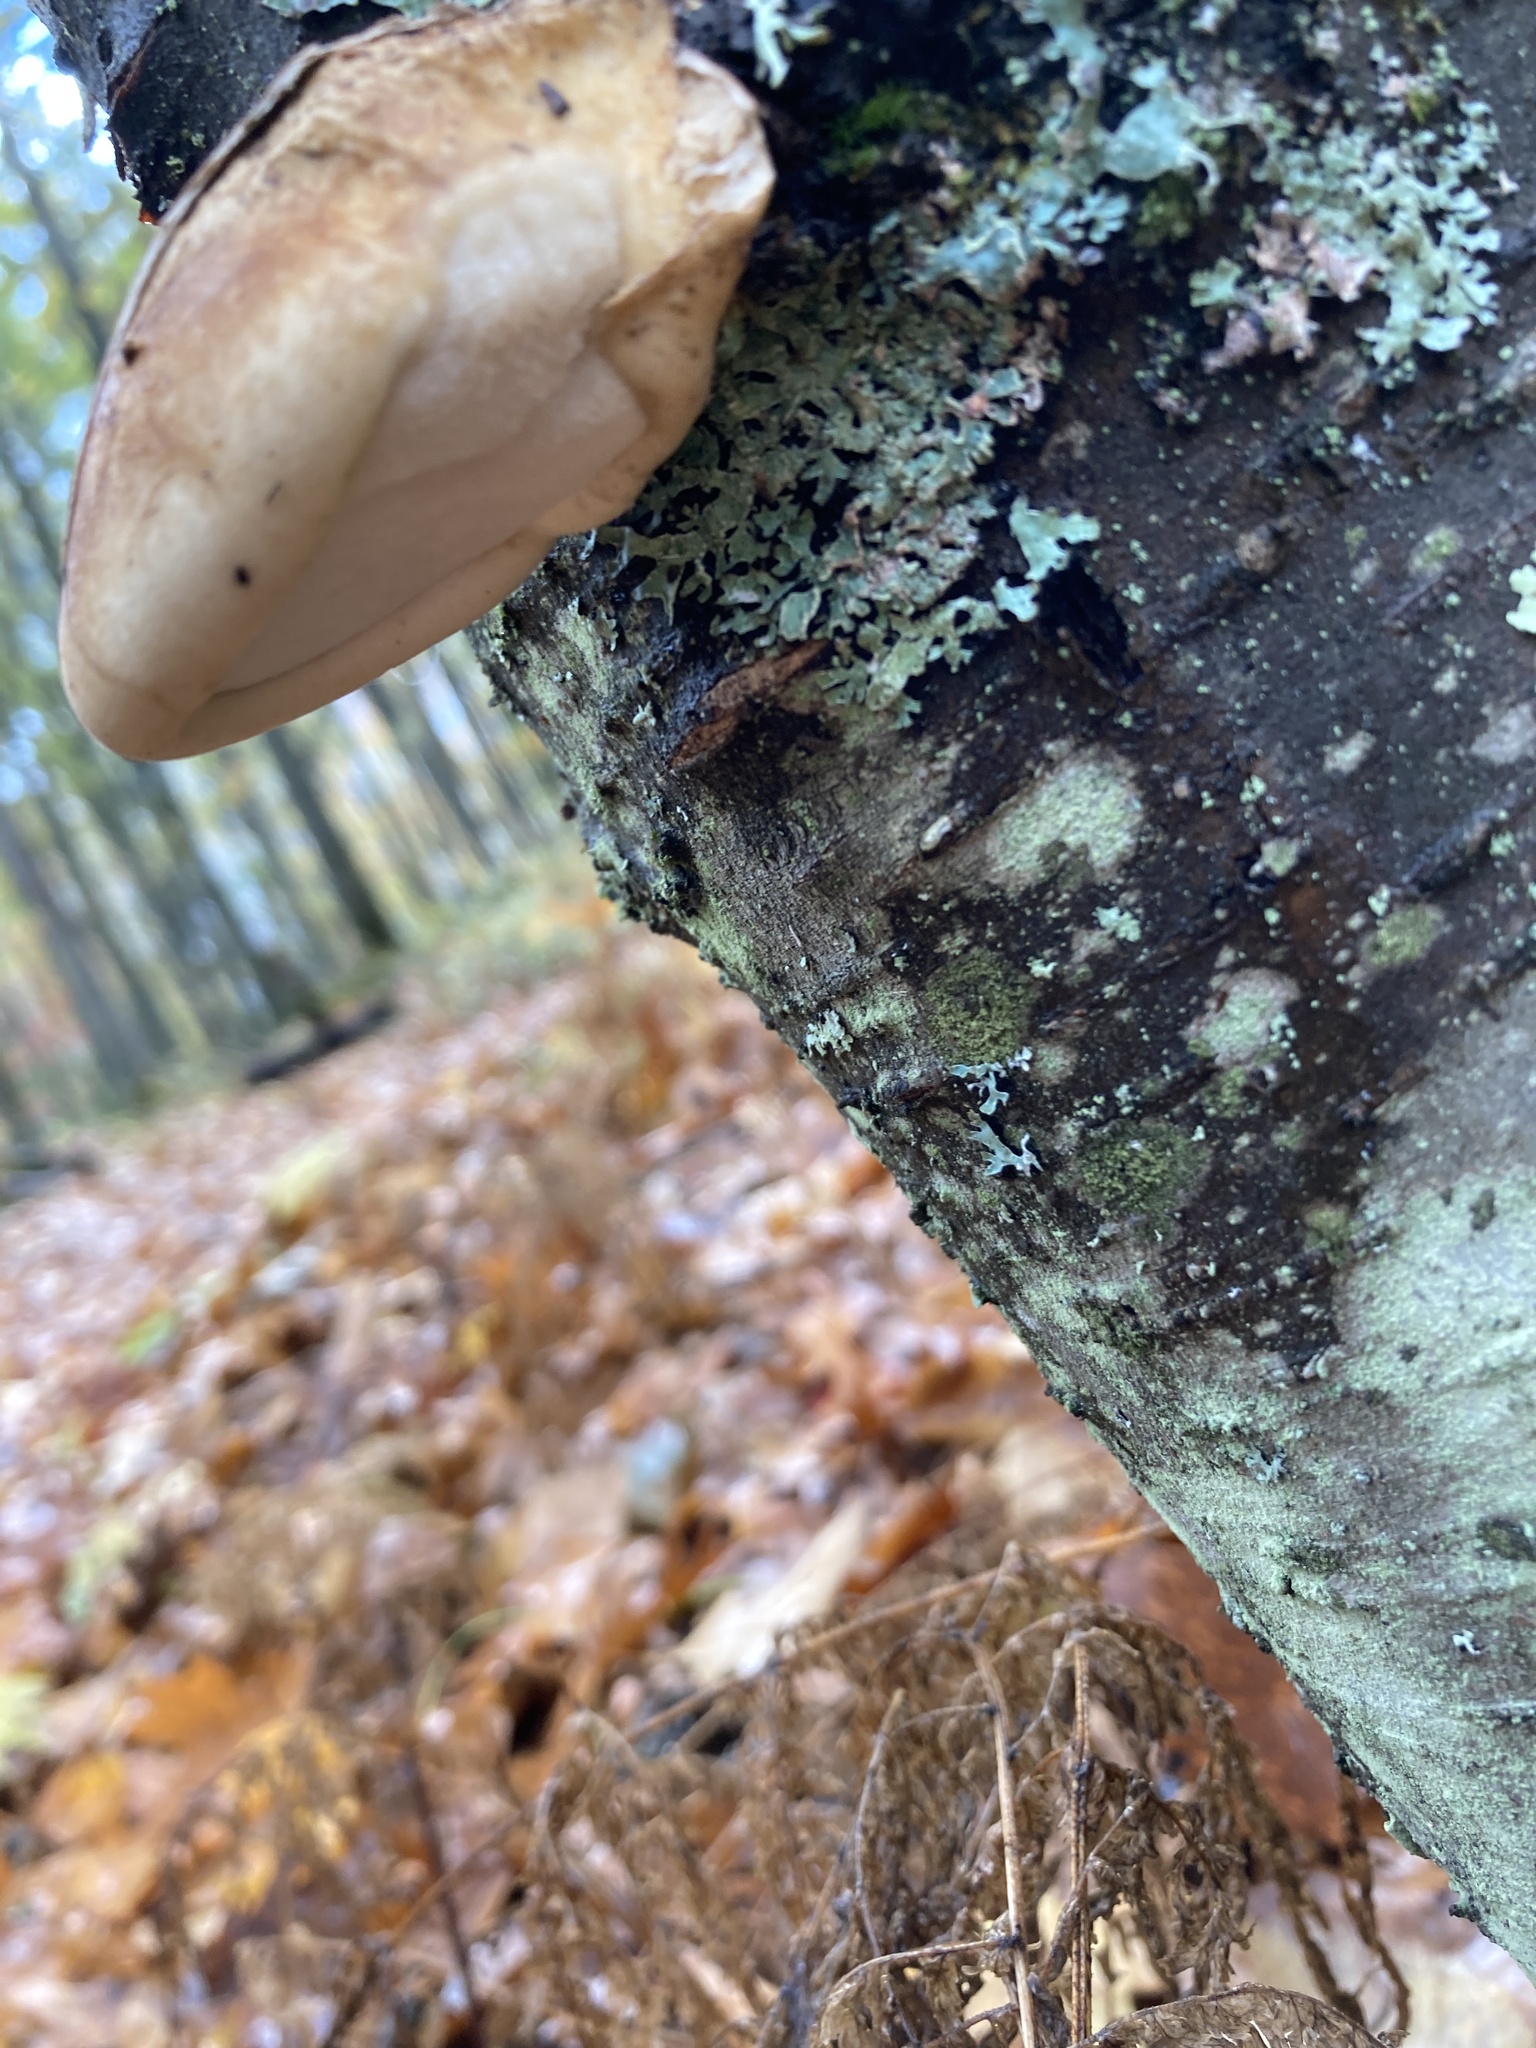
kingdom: Fungi
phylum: Basidiomycota
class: Agaricomycetes
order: Polyporales
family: Fomitopsidaceae
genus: Fomitopsis
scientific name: Fomitopsis betulina
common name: Birch polypore
